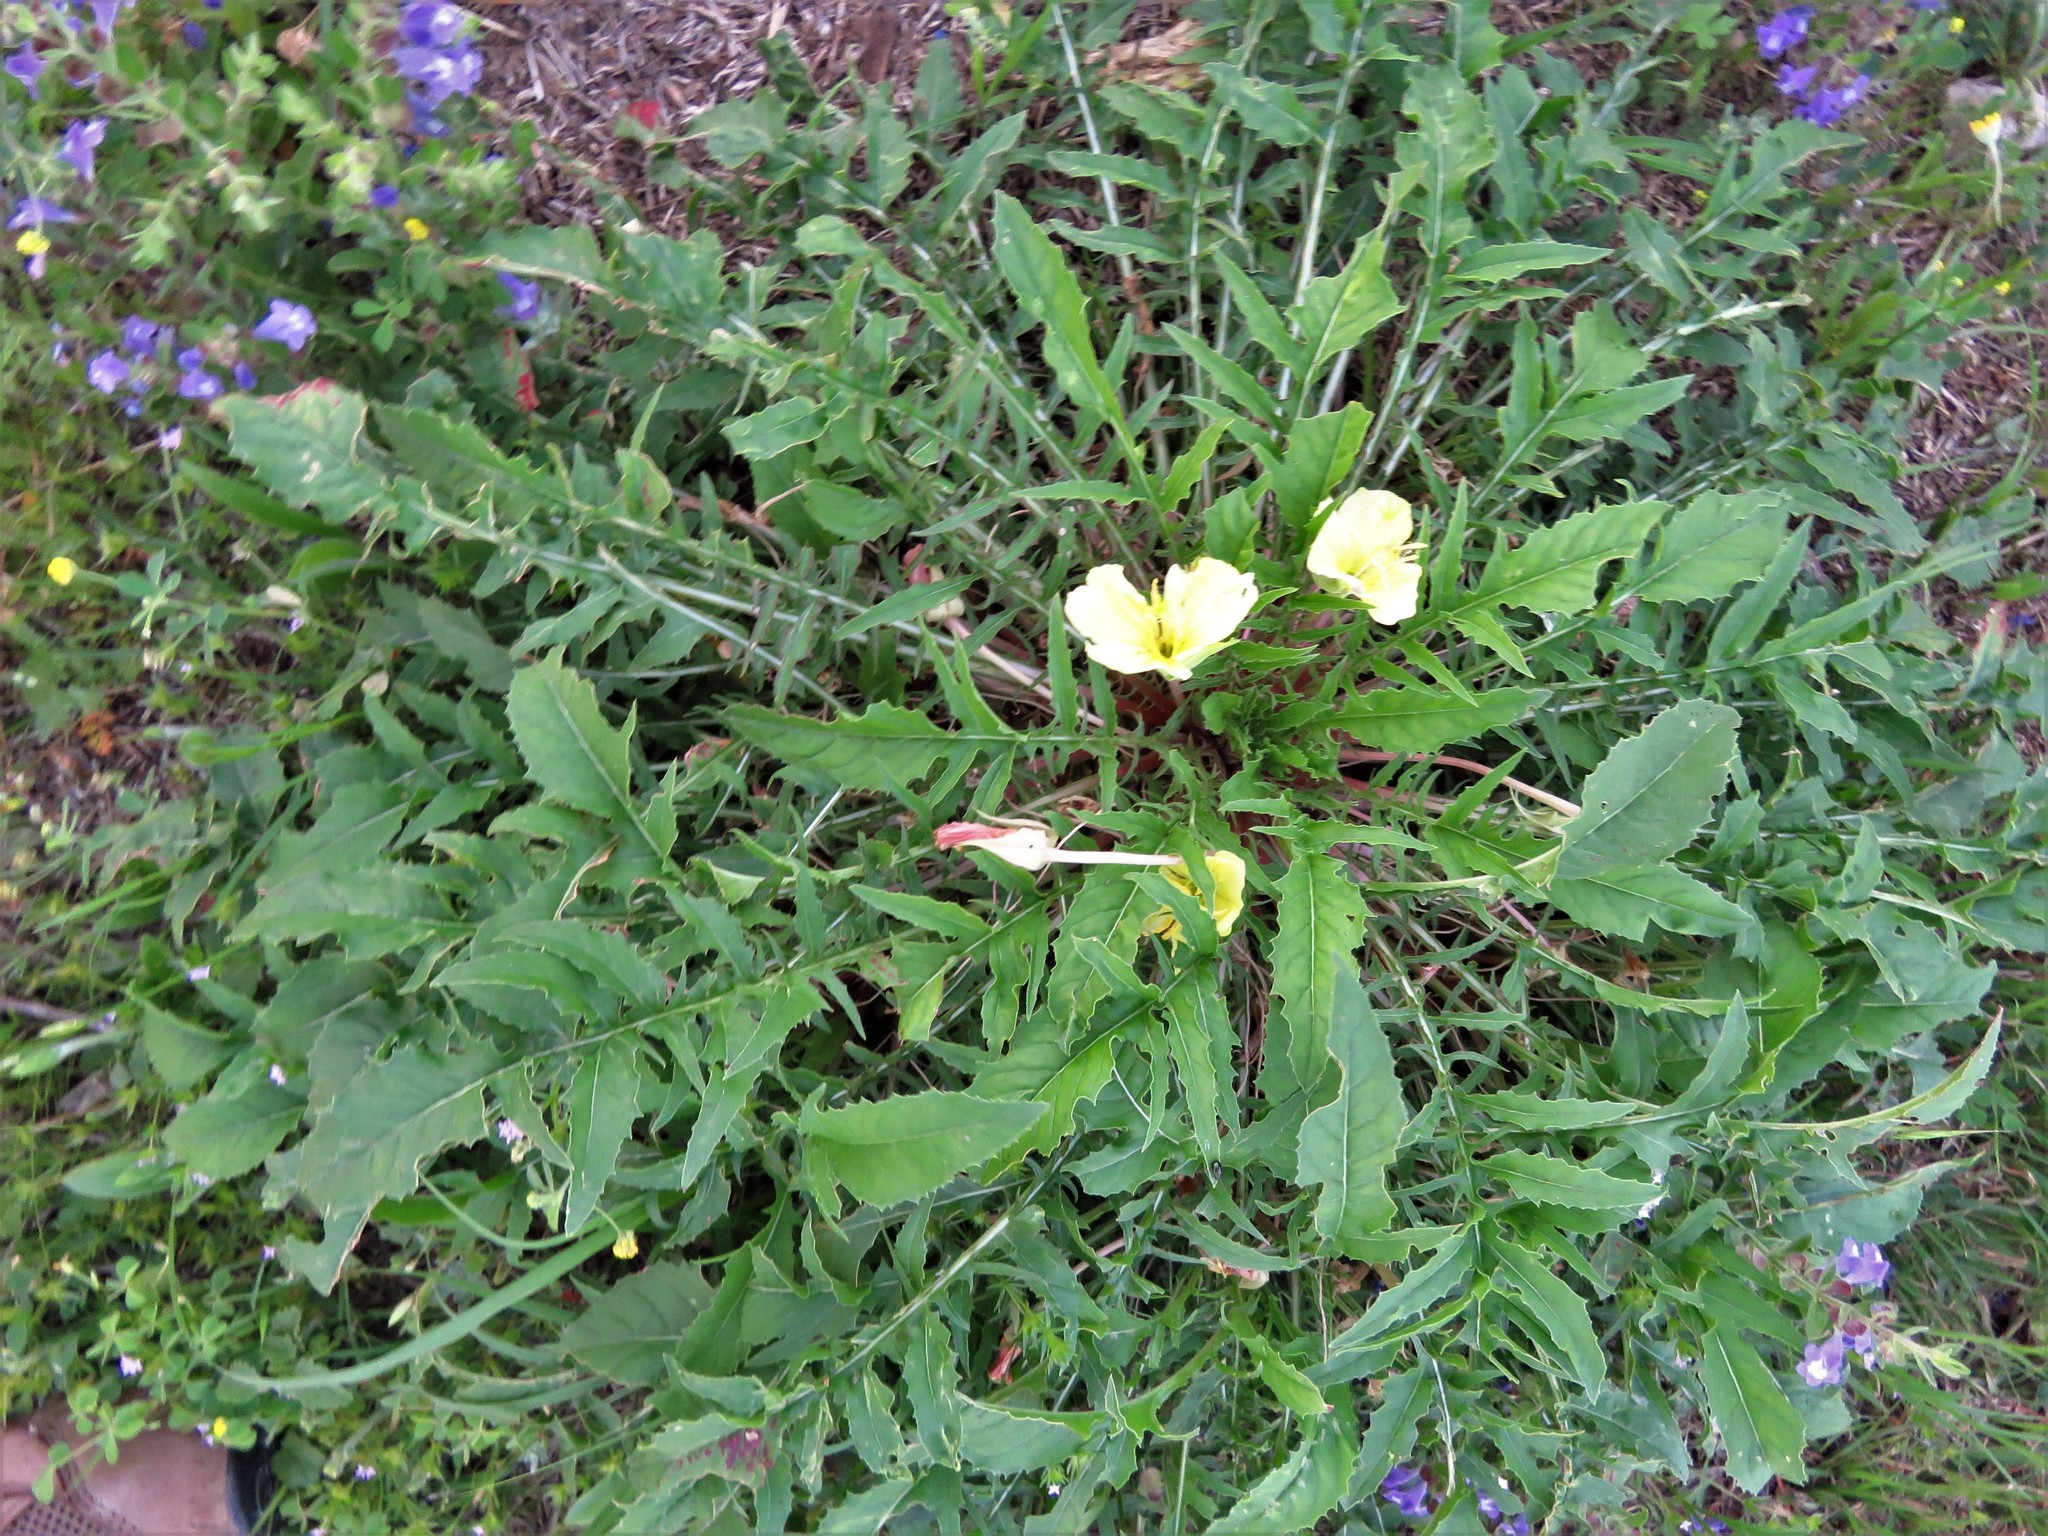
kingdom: Plantae
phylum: Tracheophyta
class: Magnoliopsida
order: Myrtales
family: Onagraceae
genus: Oenothera
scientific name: Oenothera triloba
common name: Sessile evening-primrose
